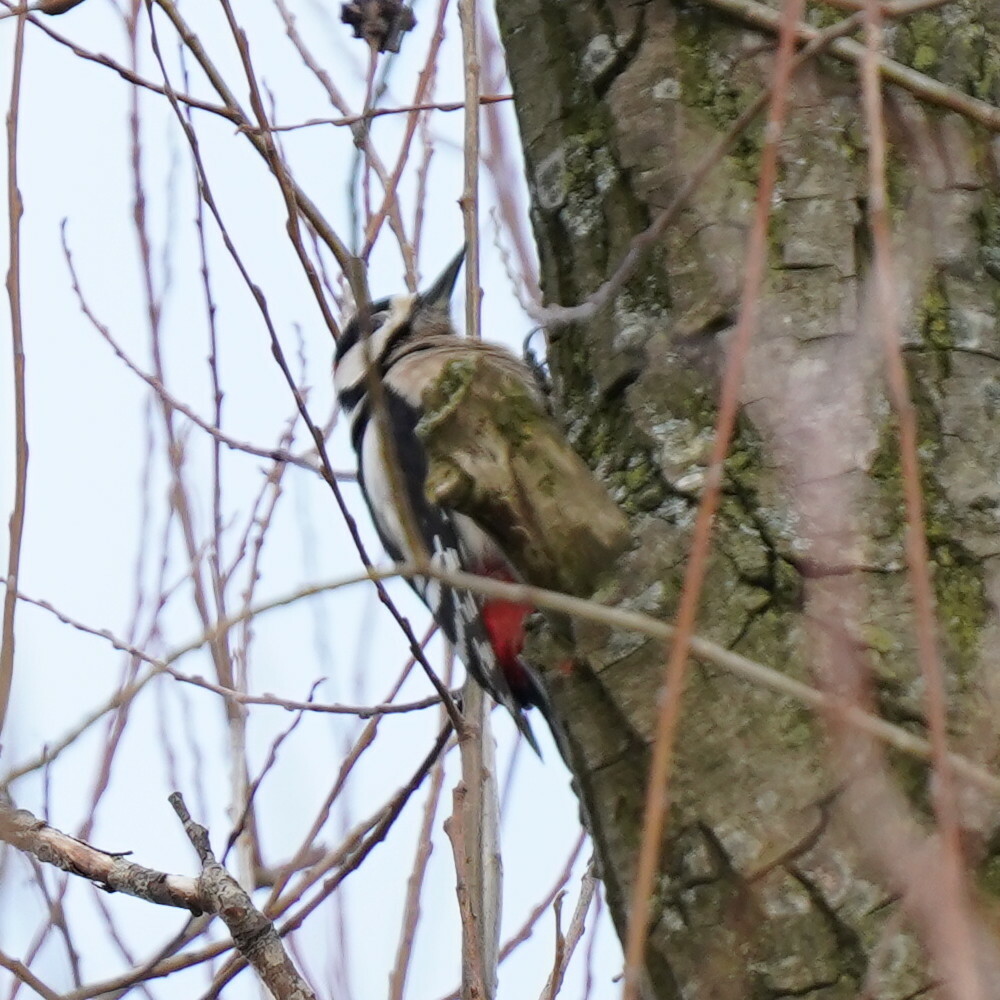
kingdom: Animalia
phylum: Chordata
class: Aves
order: Piciformes
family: Picidae
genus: Dendrocopos
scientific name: Dendrocopos major
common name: Great spotted woodpecker
